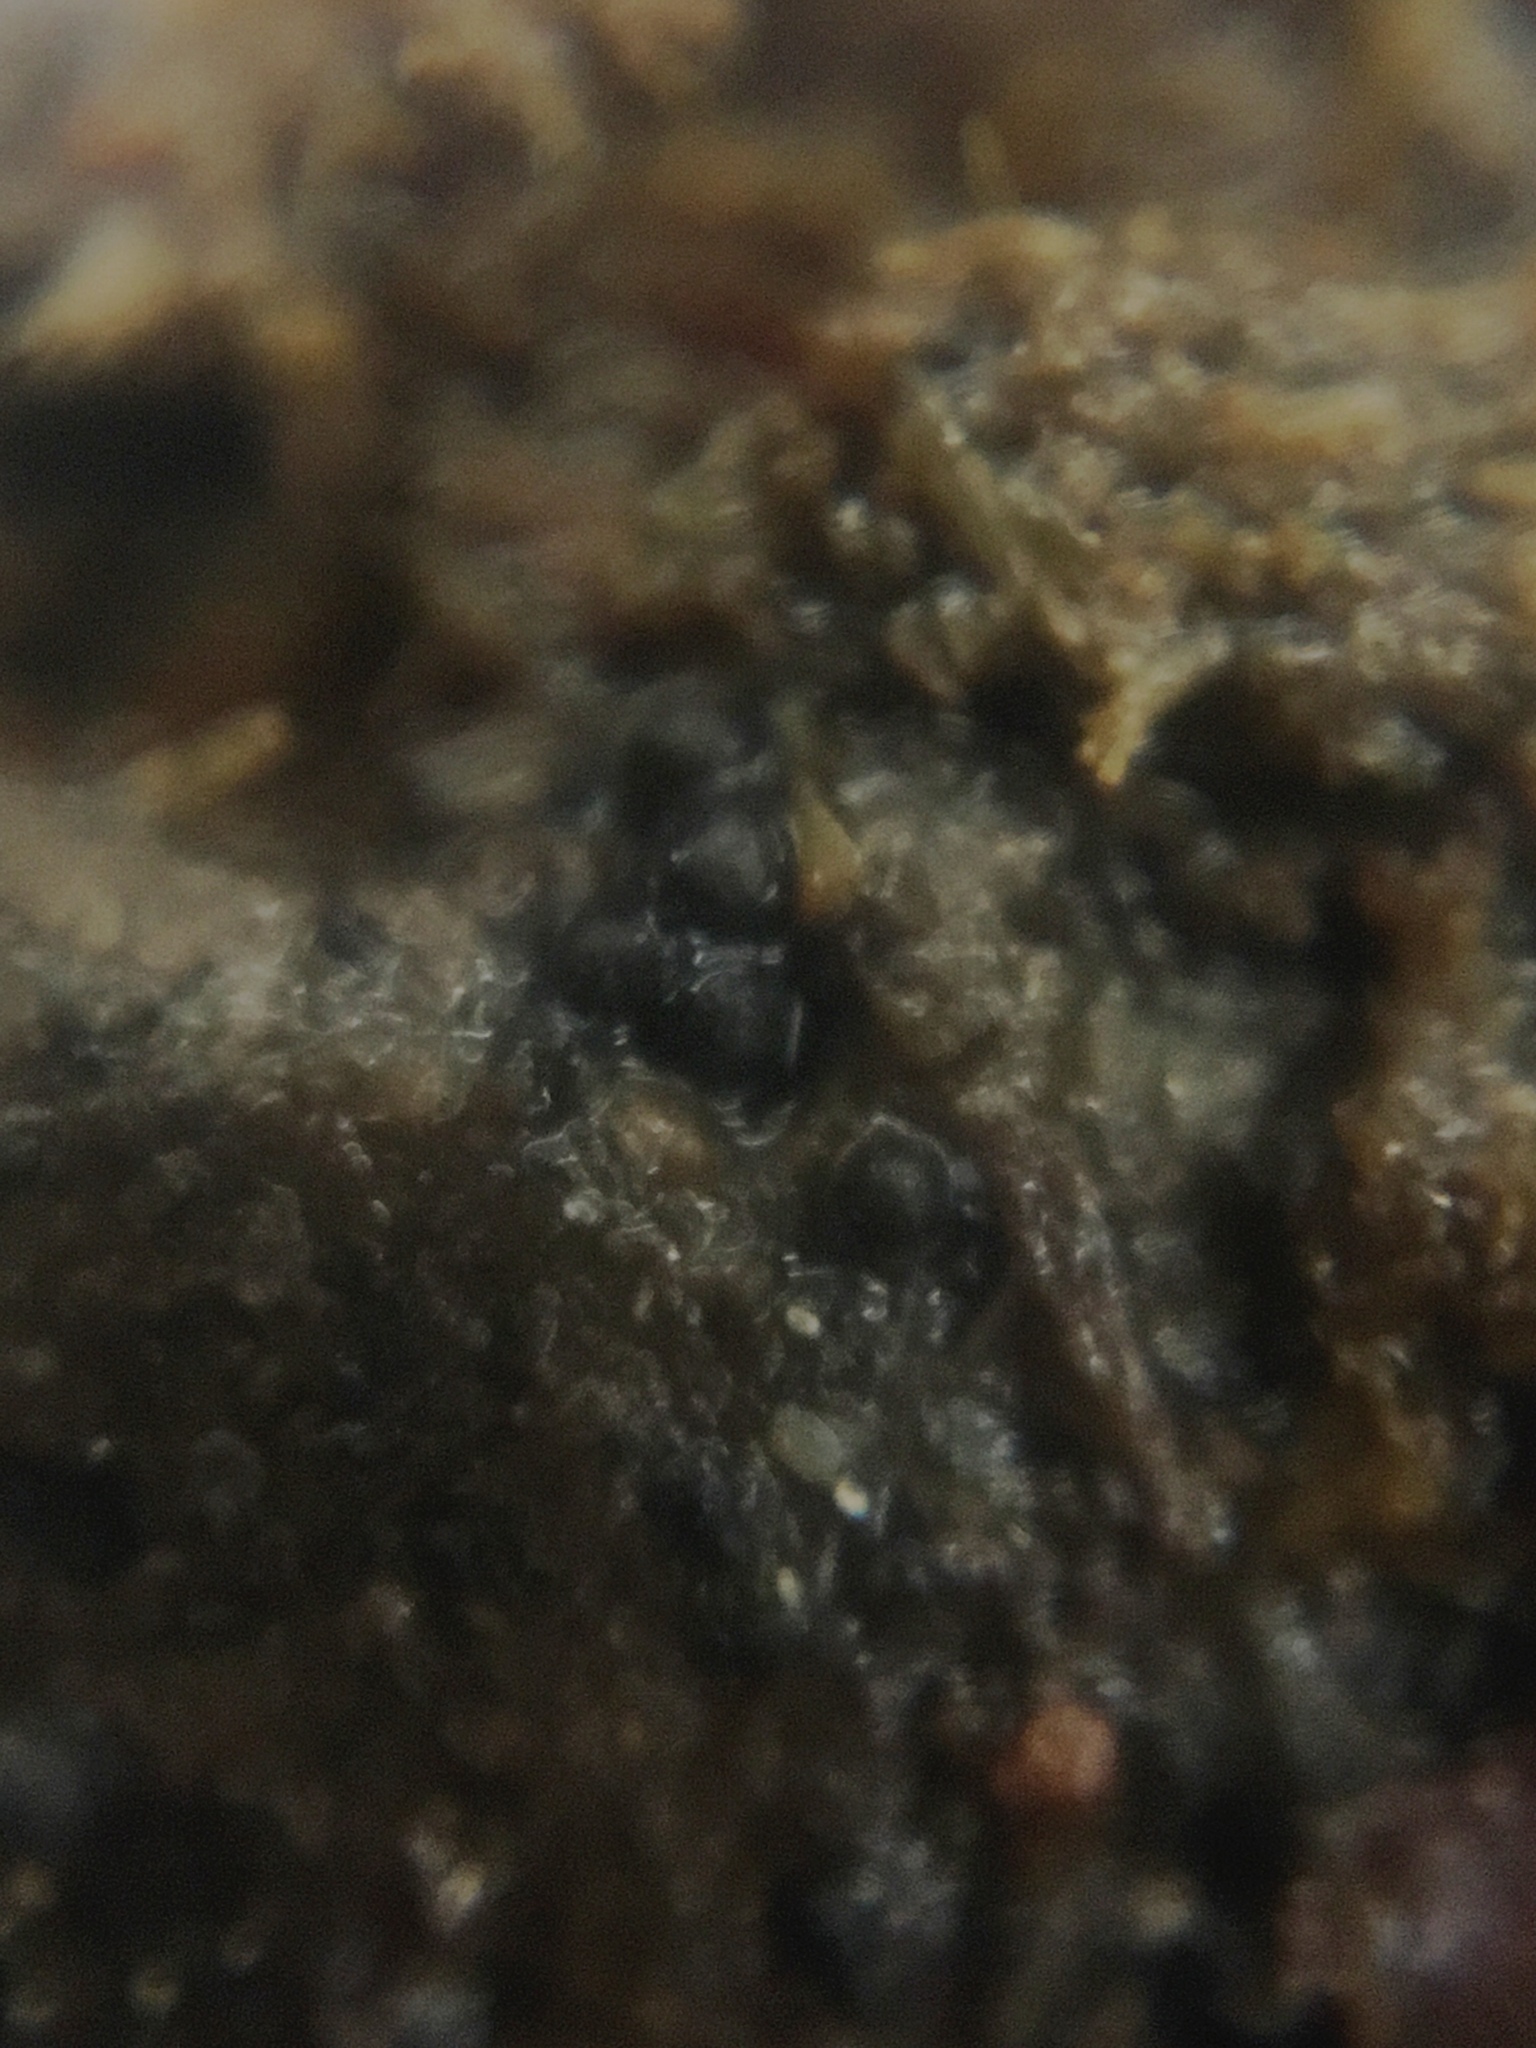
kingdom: Fungi
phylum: Ascomycota
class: Sordariomycetes
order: Sordariales
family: Podosporaceae
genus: Podospora
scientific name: Podospora appendiculata
